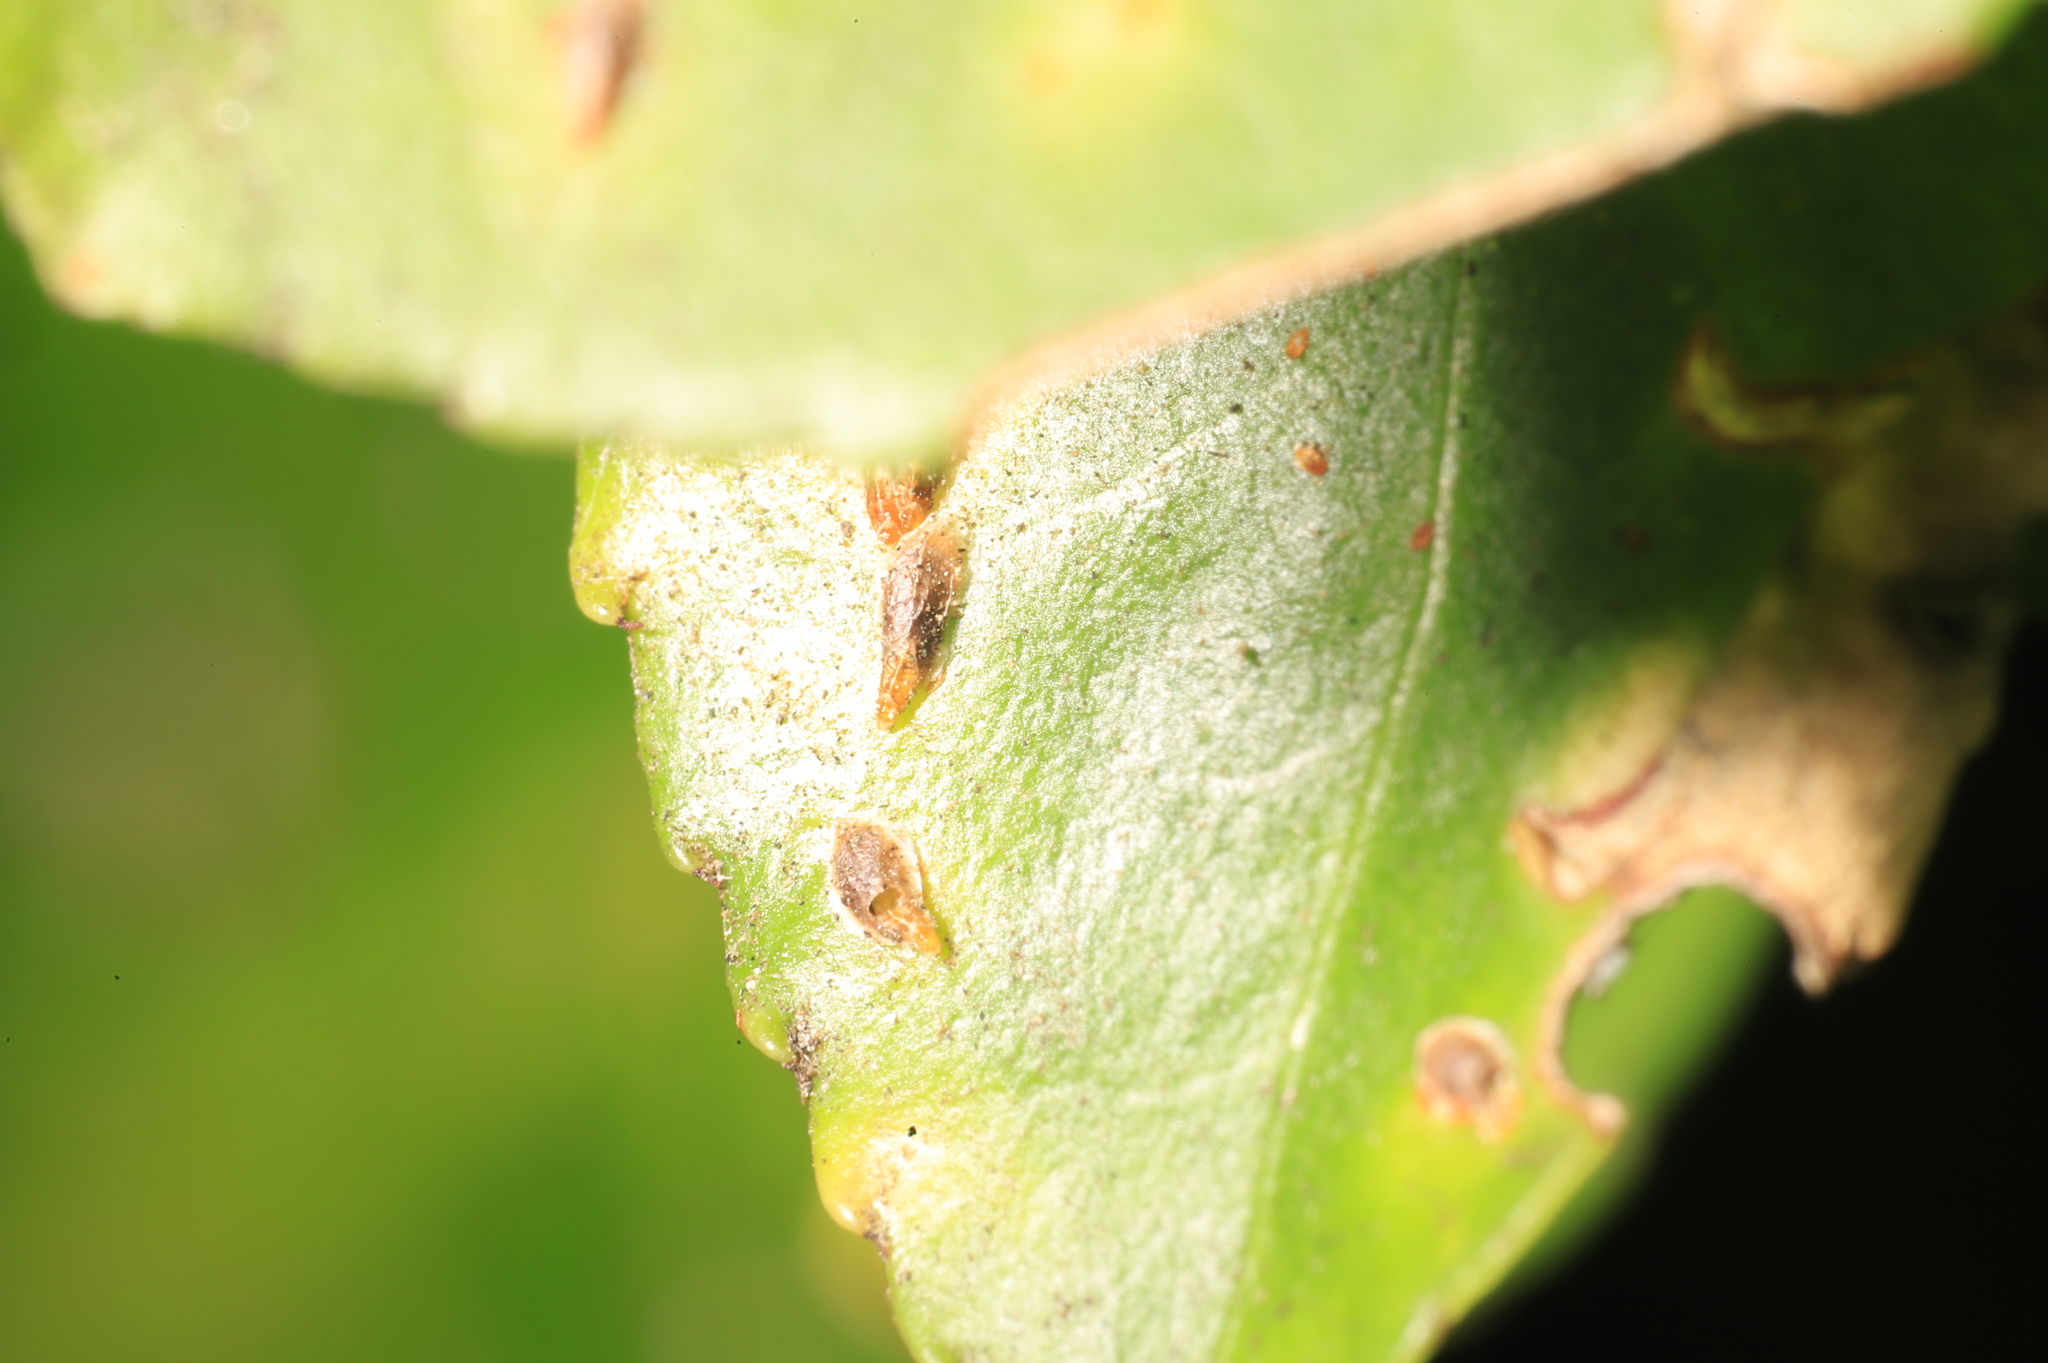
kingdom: Animalia
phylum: Arthropoda
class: Insecta
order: Hemiptera
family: Diaspididae
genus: Unaspis
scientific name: Unaspis euonymi
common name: Euonymus scale
